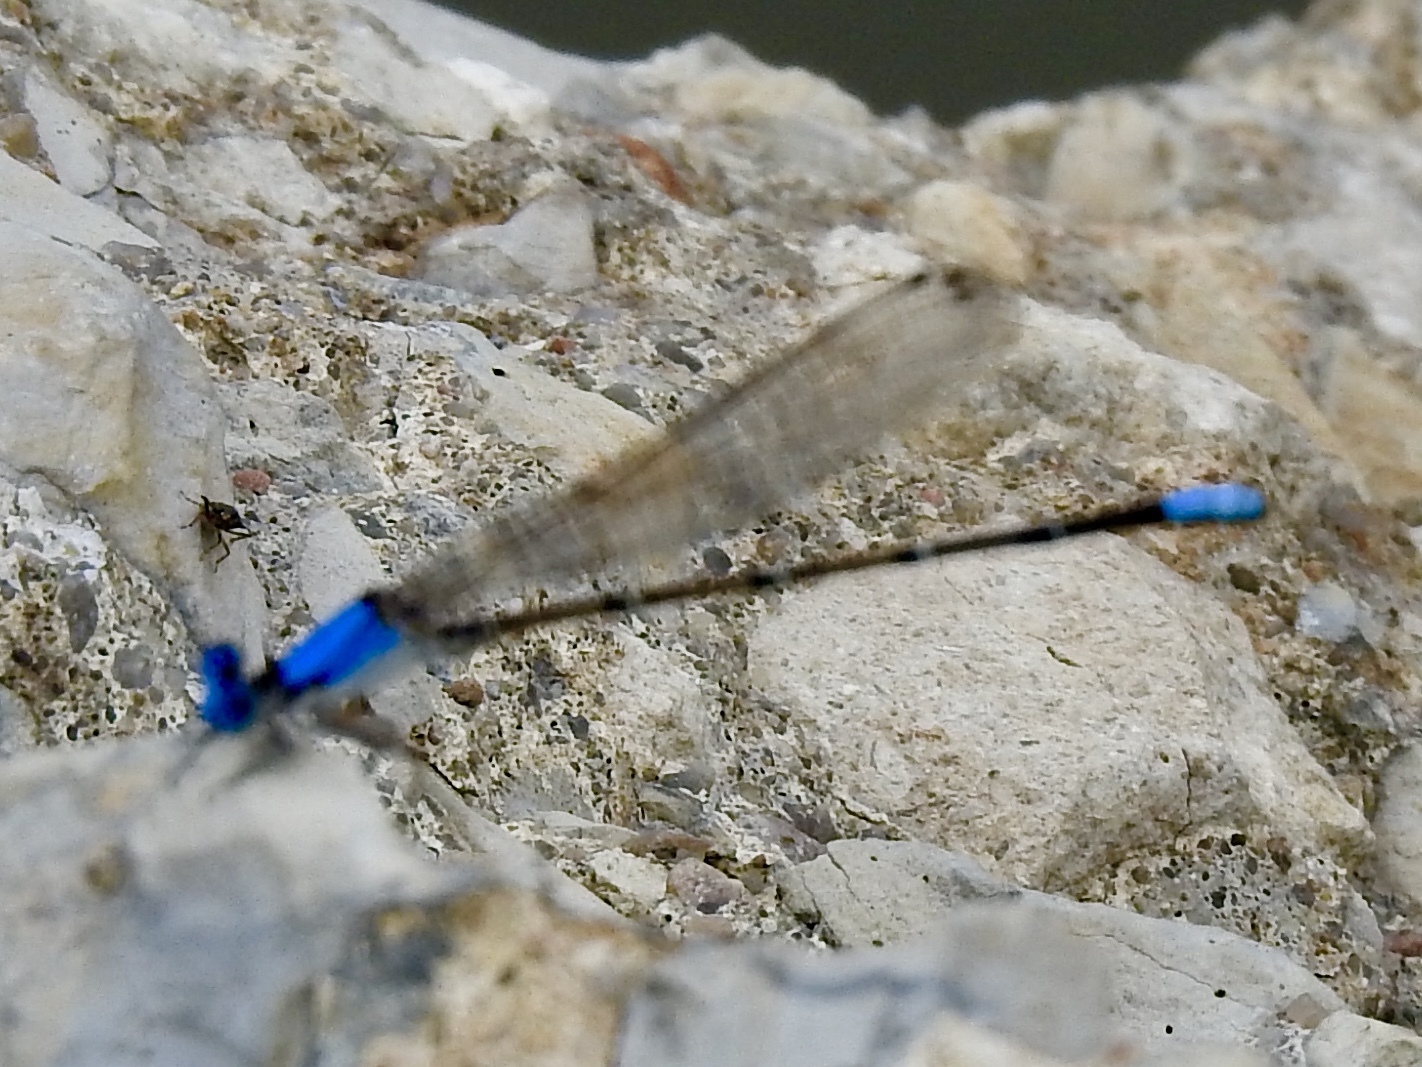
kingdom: Animalia
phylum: Arthropoda
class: Insecta
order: Odonata
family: Coenagrionidae
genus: Argia
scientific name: Argia apicalis
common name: Blue-fronted dancer
